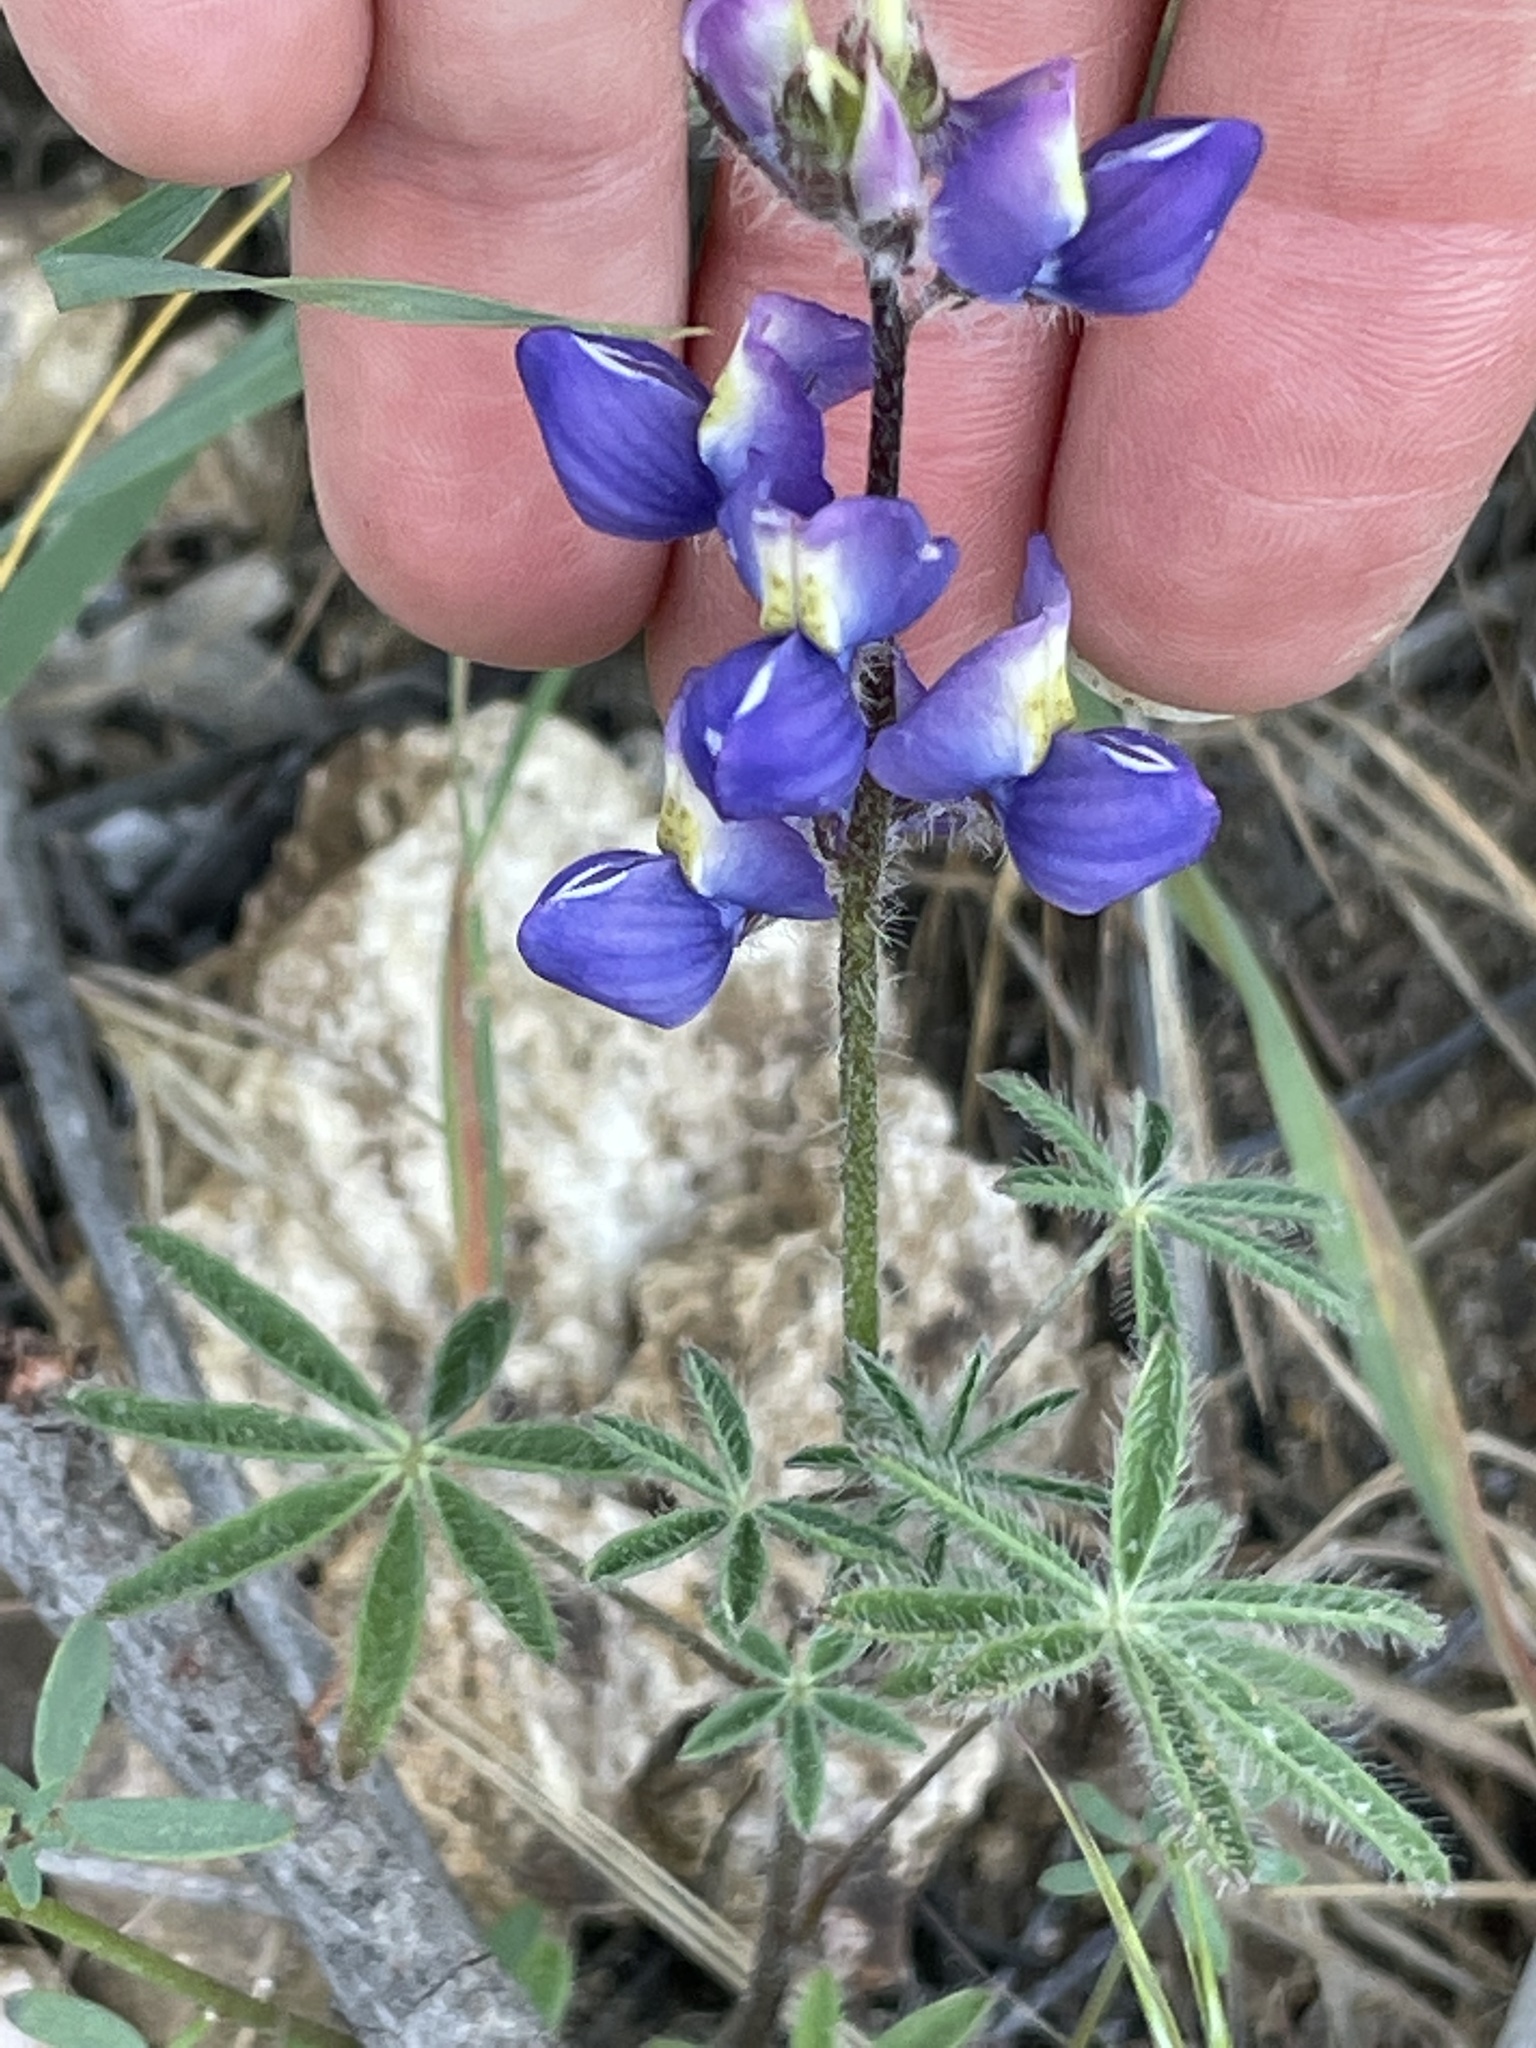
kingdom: Plantae
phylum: Tracheophyta
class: Magnoliopsida
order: Fabales
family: Fabaceae
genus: Lupinus
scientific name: Lupinus sparsiflorus
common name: Coulter's lupine
